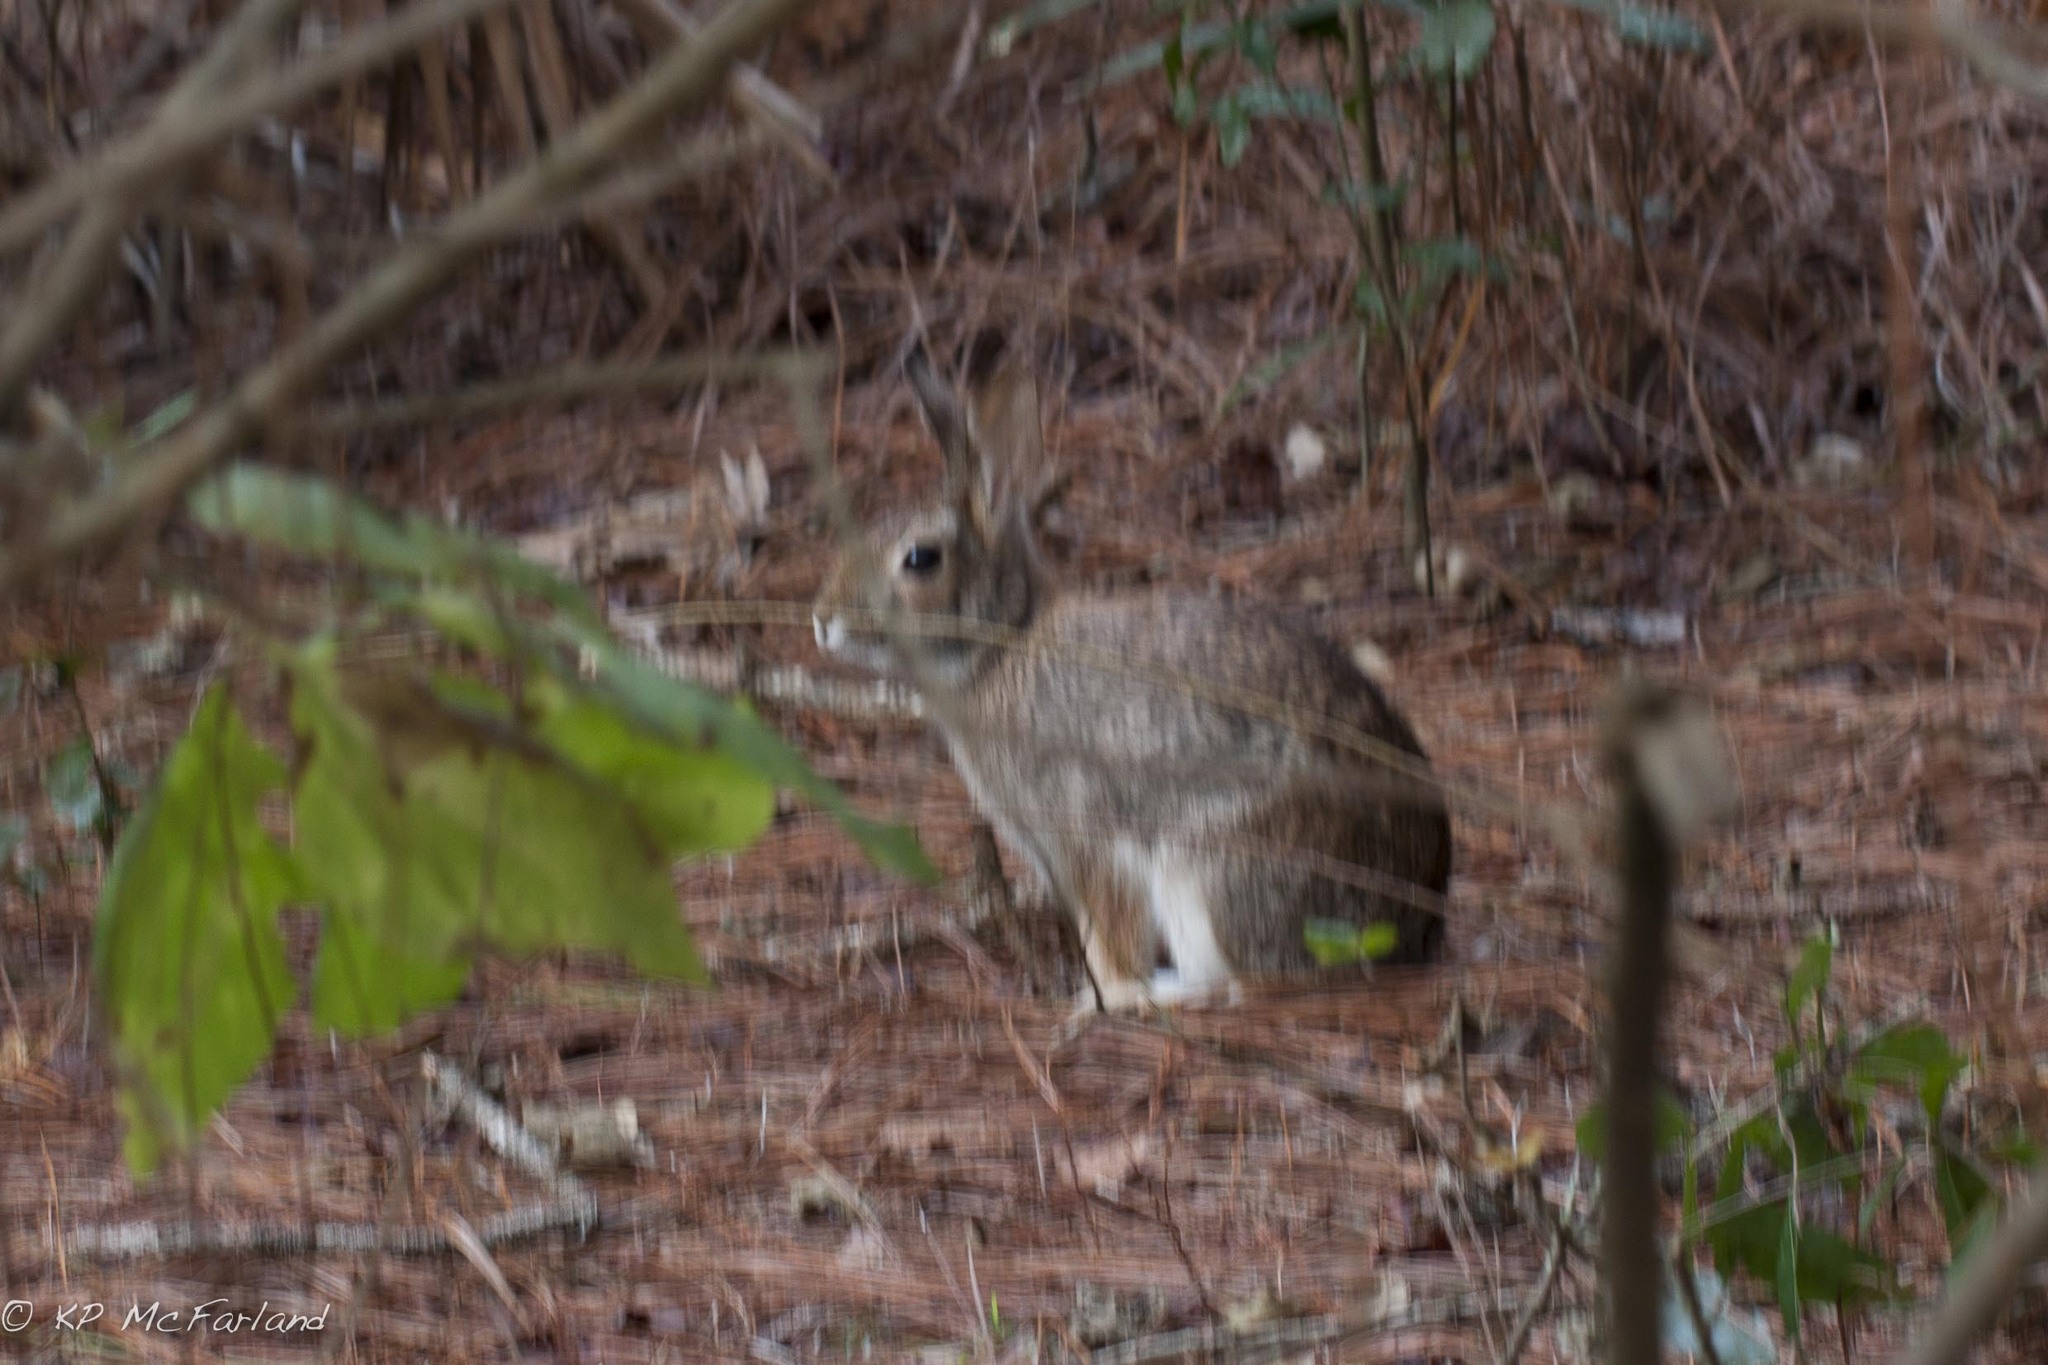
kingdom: Animalia
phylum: Chordata
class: Mammalia
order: Lagomorpha
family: Leporidae
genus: Sylvilagus
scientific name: Sylvilagus floridanus
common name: Eastern cottontail
